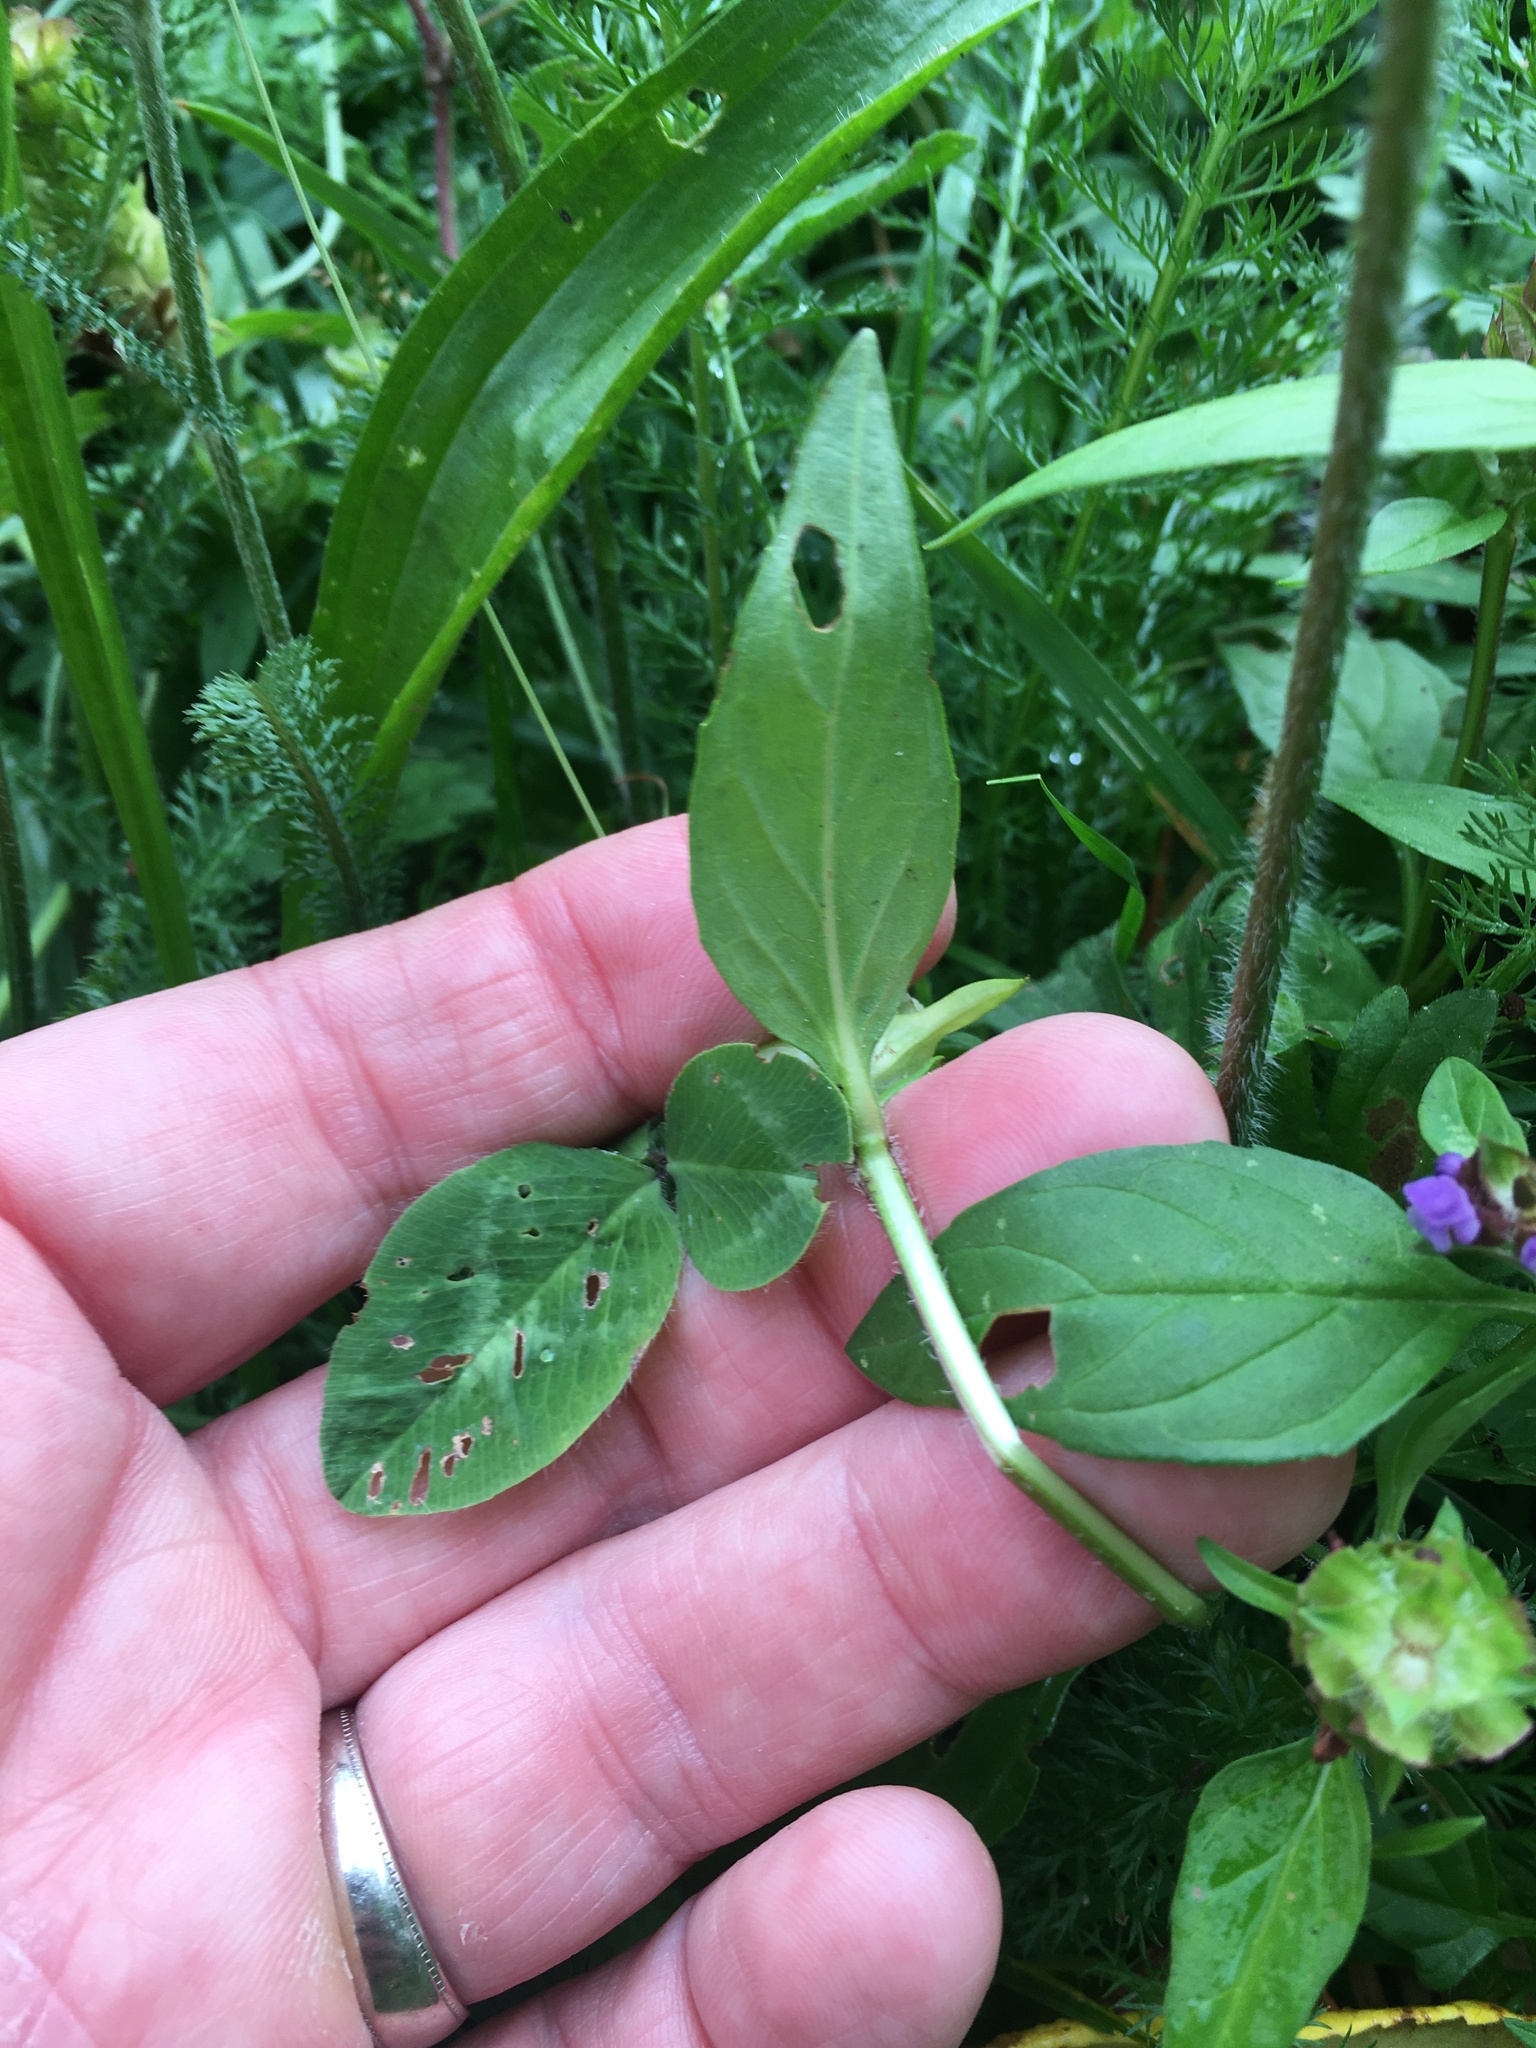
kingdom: Plantae
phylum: Tracheophyta
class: Magnoliopsida
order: Lamiales
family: Lamiaceae
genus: Prunella
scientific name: Prunella vulgaris
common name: Heal-all
